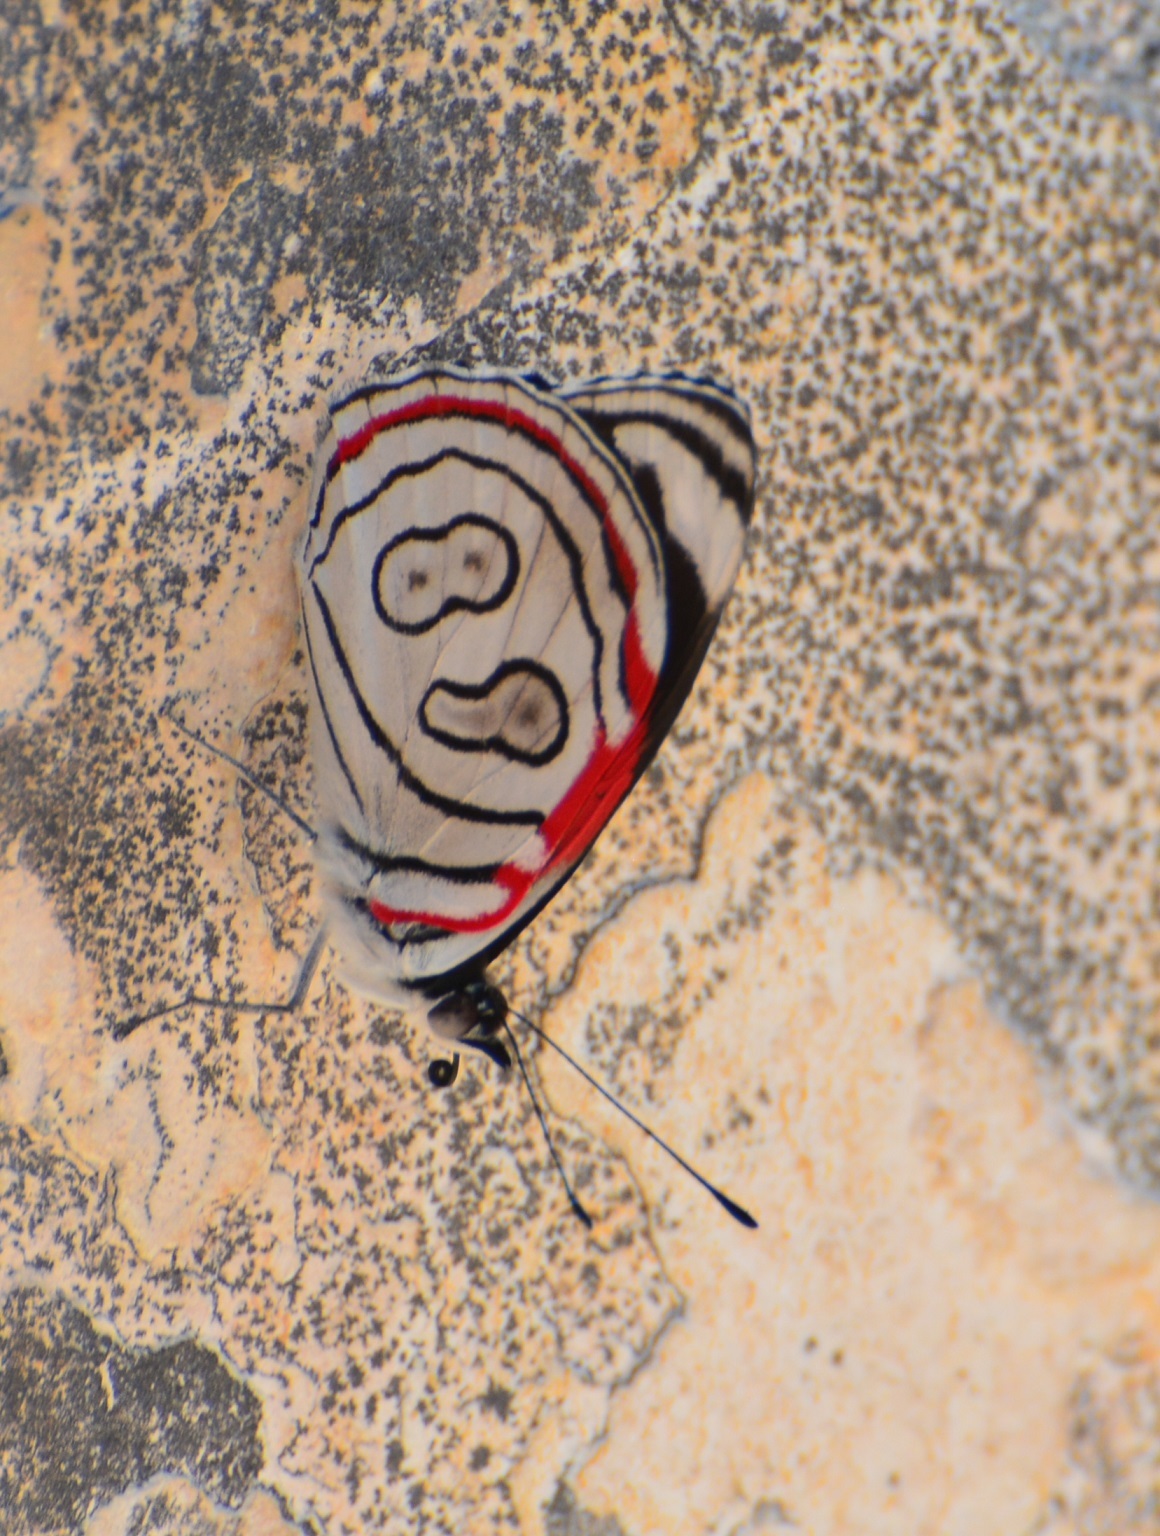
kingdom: Animalia
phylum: Arthropoda
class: Insecta
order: Lepidoptera
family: Nymphalidae
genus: Diaethria
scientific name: Diaethria astala
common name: Navy eighty-eight
